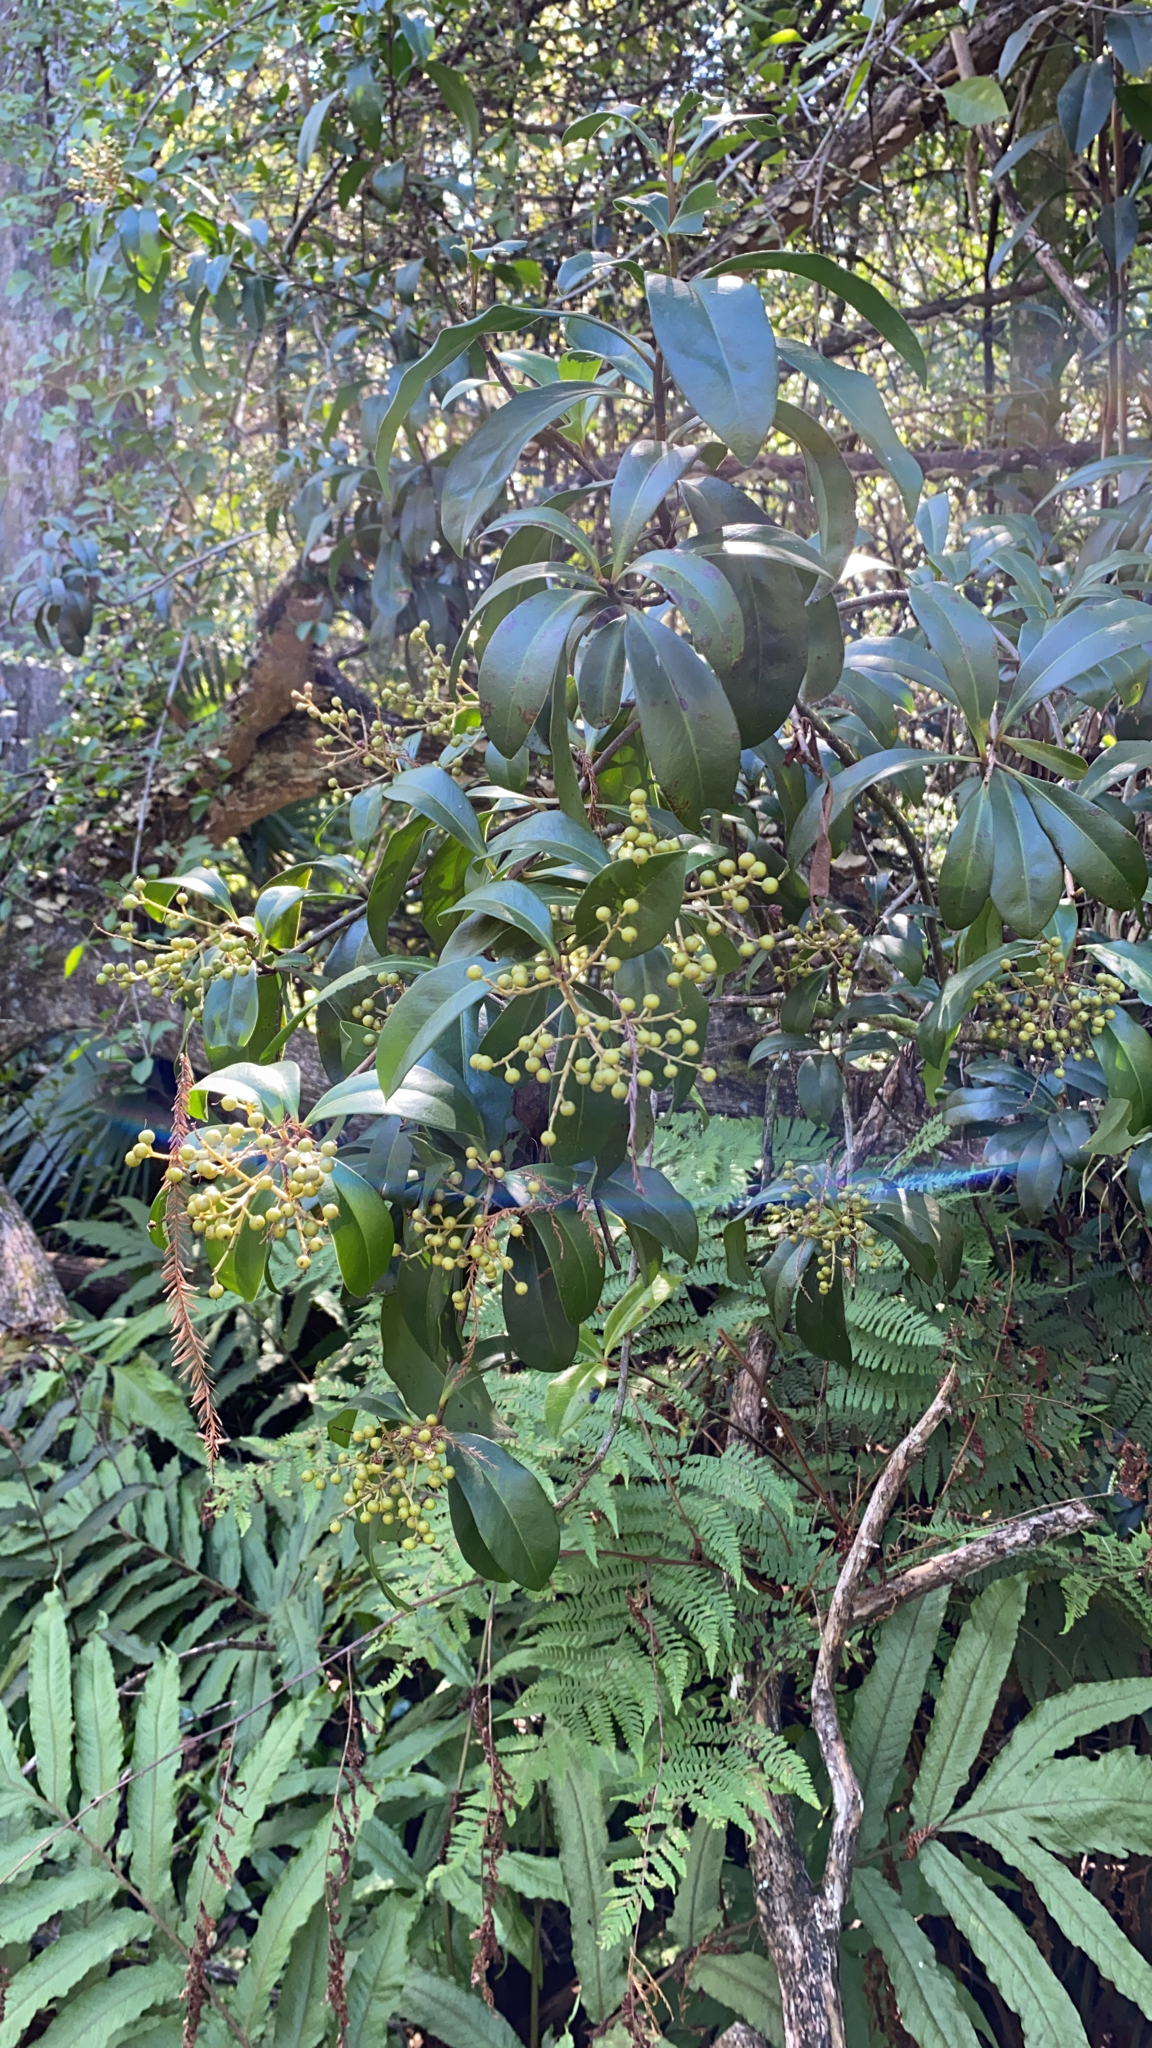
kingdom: Plantae
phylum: Tracheophyta
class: Magnoliopsida
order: Ericales
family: Primulaceae
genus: Ardisia
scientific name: Ardisia escallonioides
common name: Island marlberry
